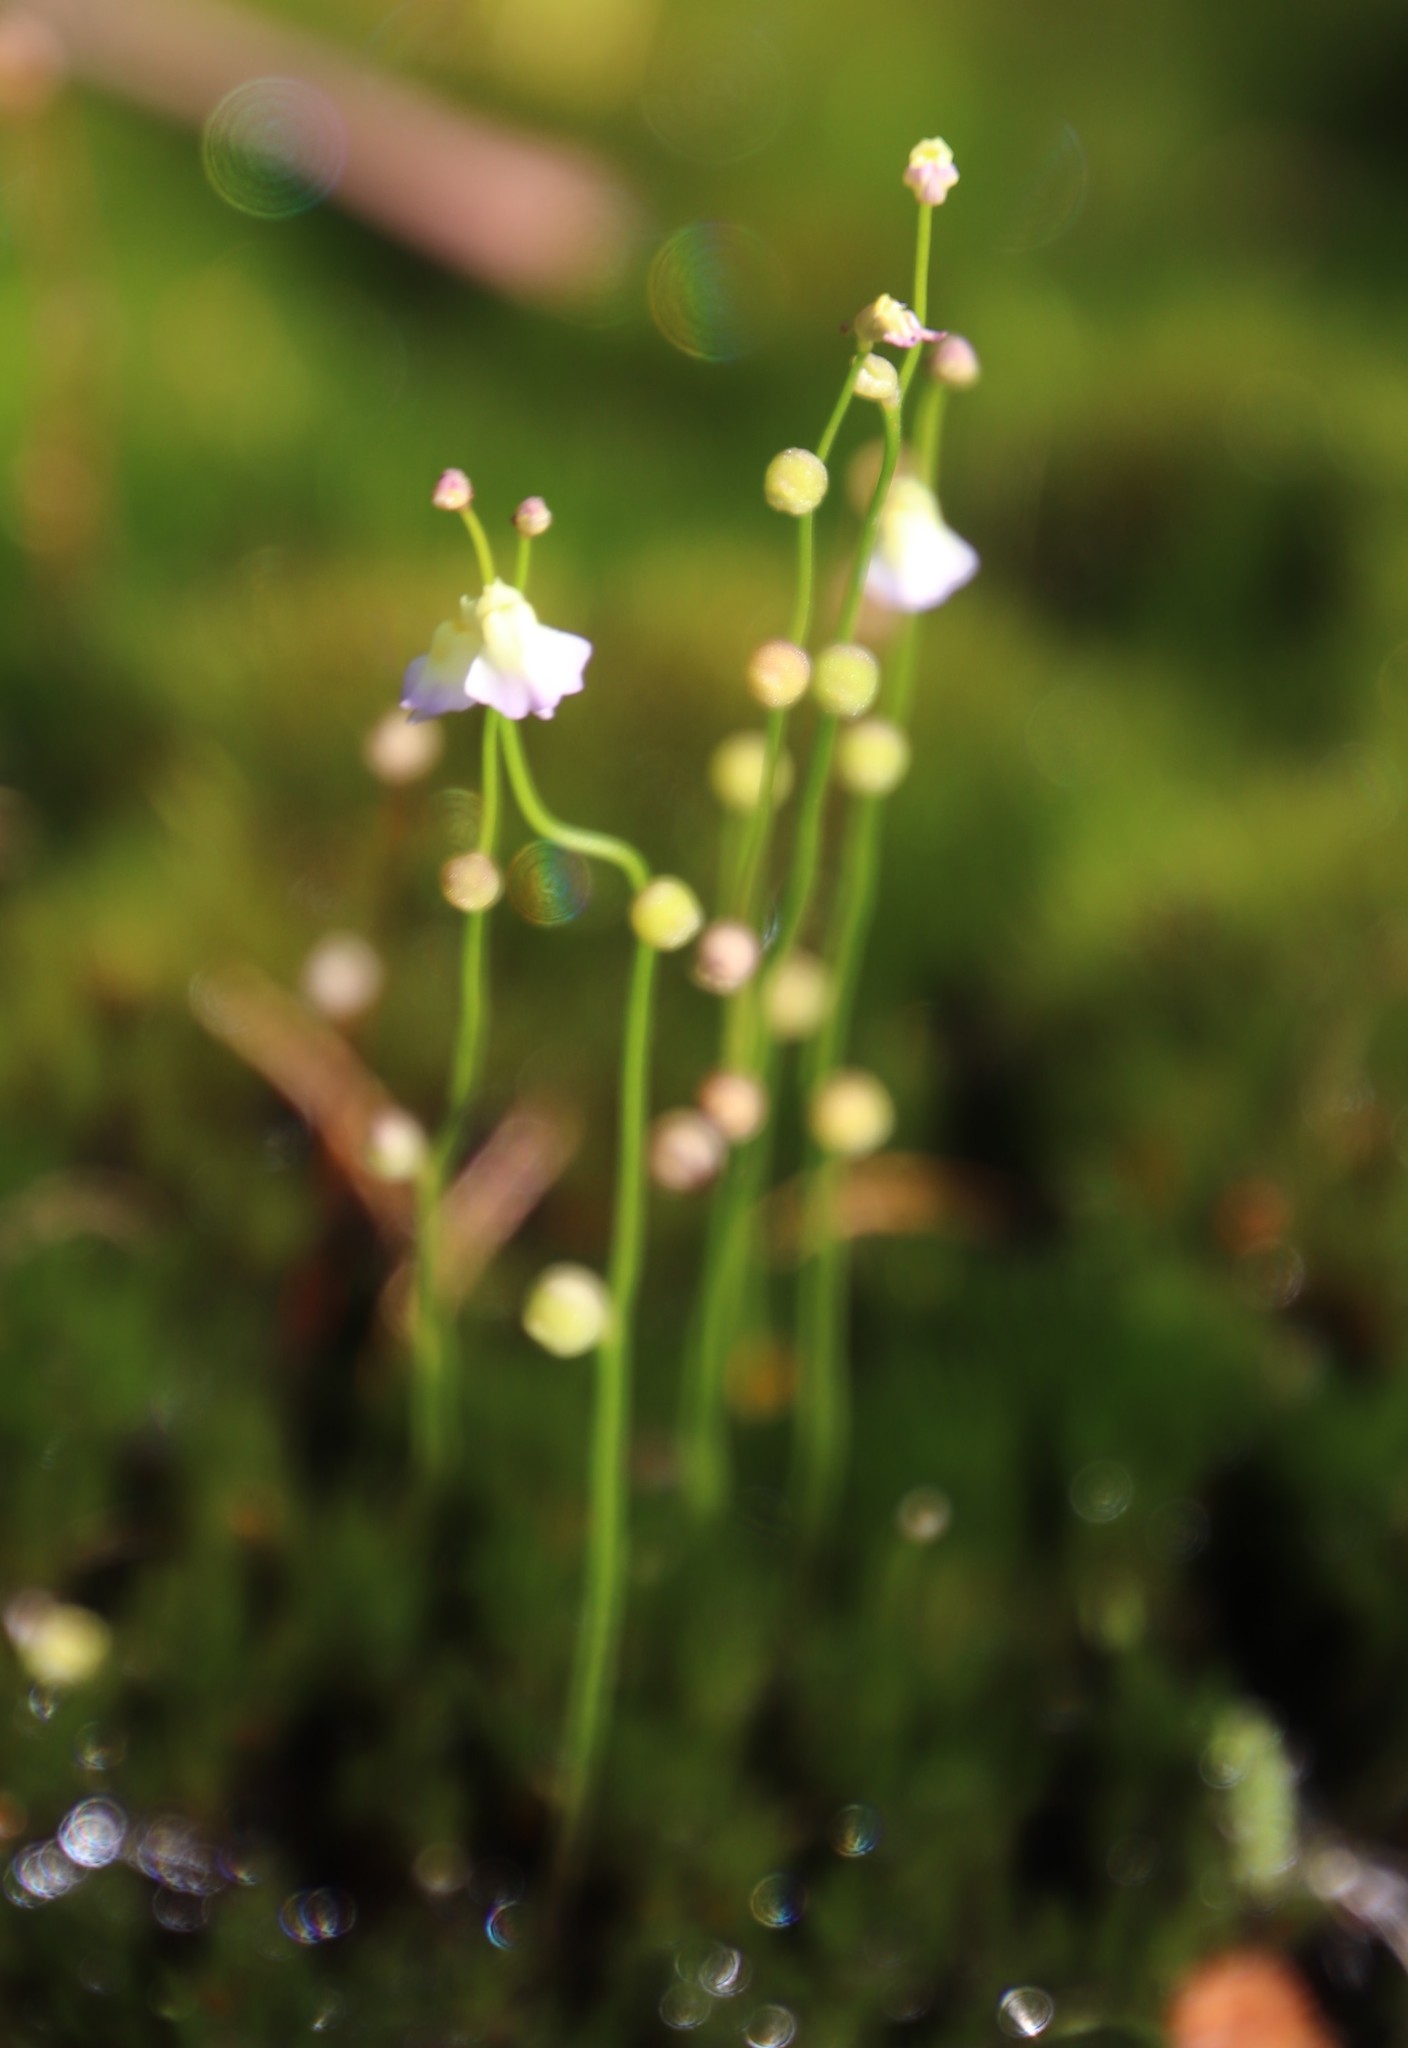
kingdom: Plantae
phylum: Tracheophyta
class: Magnoliopsida
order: Lamiales
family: Lentibulariaceae
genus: Utricularia
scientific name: Utricularia bisquamata
